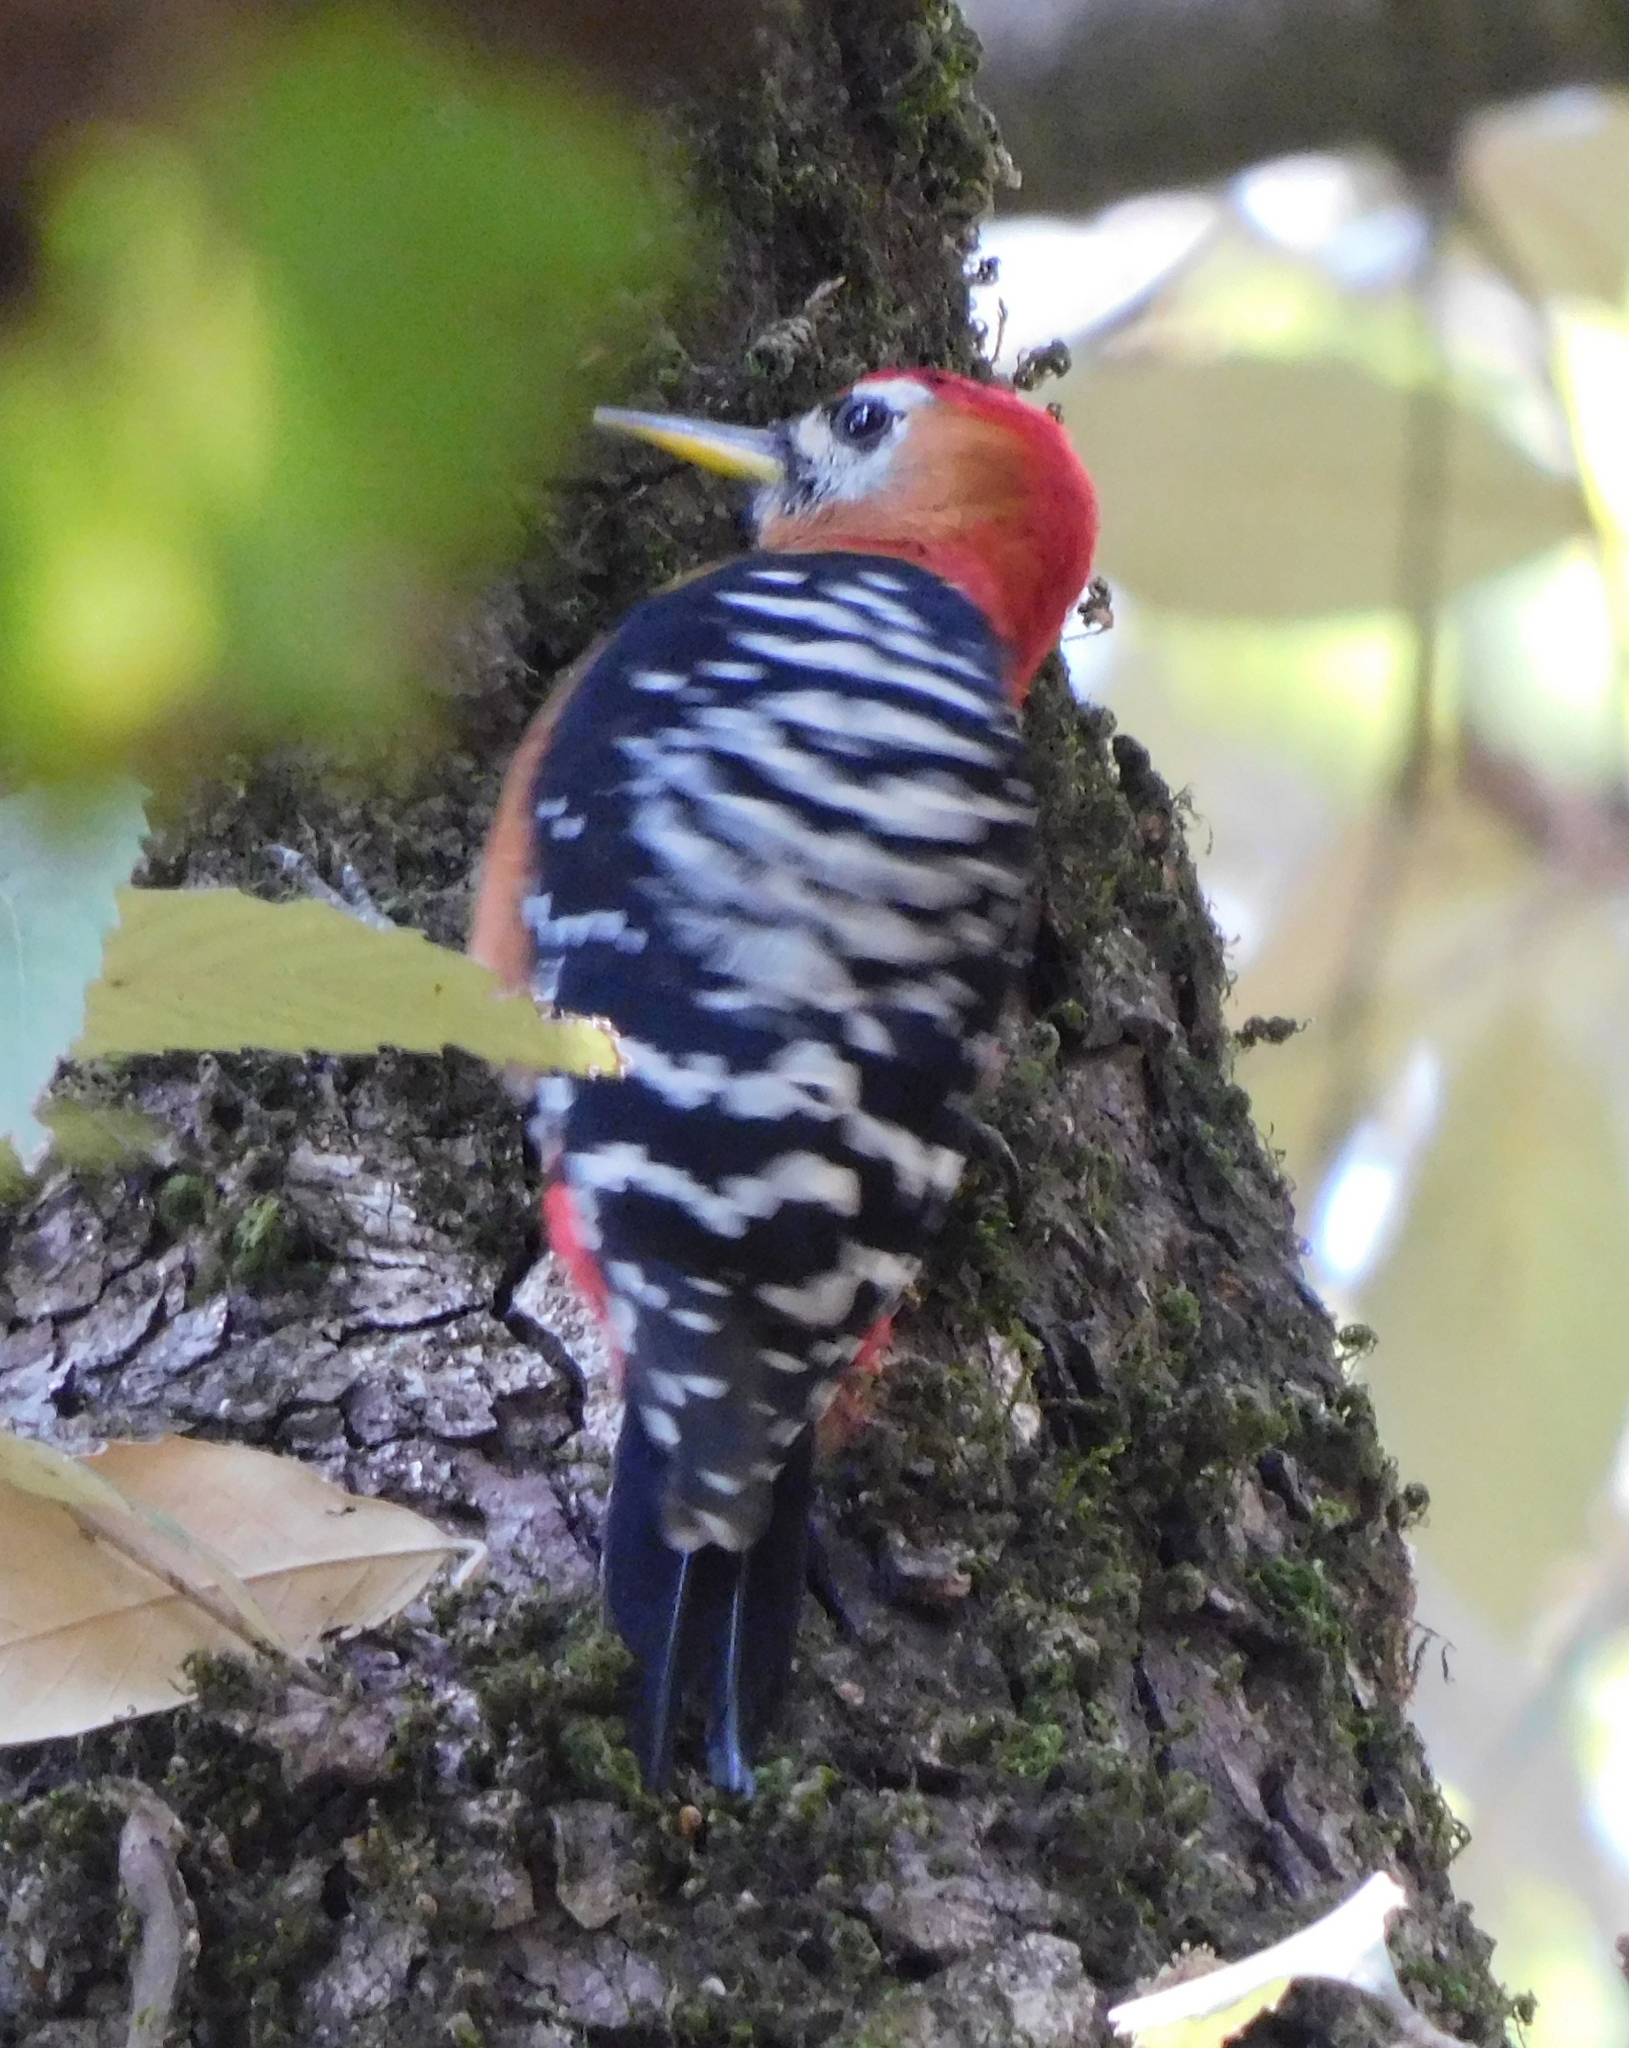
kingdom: Animalia
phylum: Chordata
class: Aves
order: Piciformes
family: Picidae
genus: Dendrocopos
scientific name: Dendrocopos hyperythrus
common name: Rufous-bellied woodpecker
